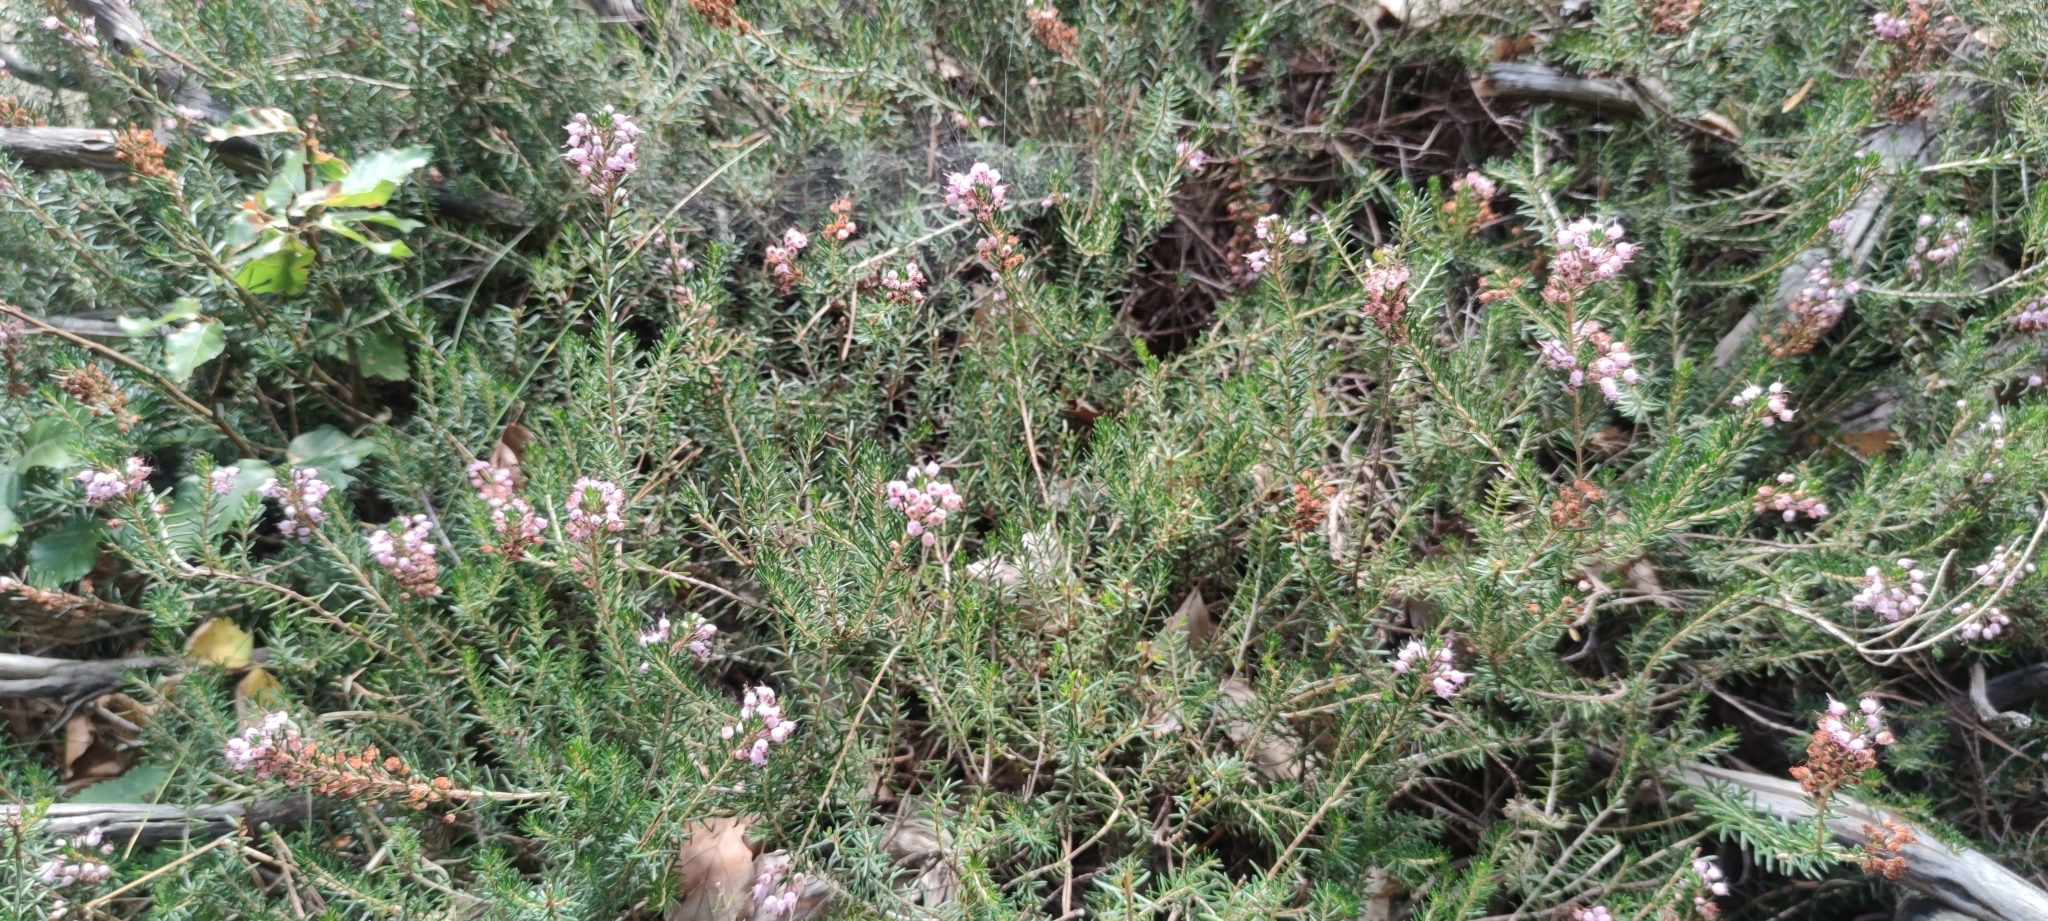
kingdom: Plantae
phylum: Tracheophyta
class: Magnoliopsida
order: Ericales
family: Ericaceae
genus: Erica
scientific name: Erica vagans
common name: Cornish heath
